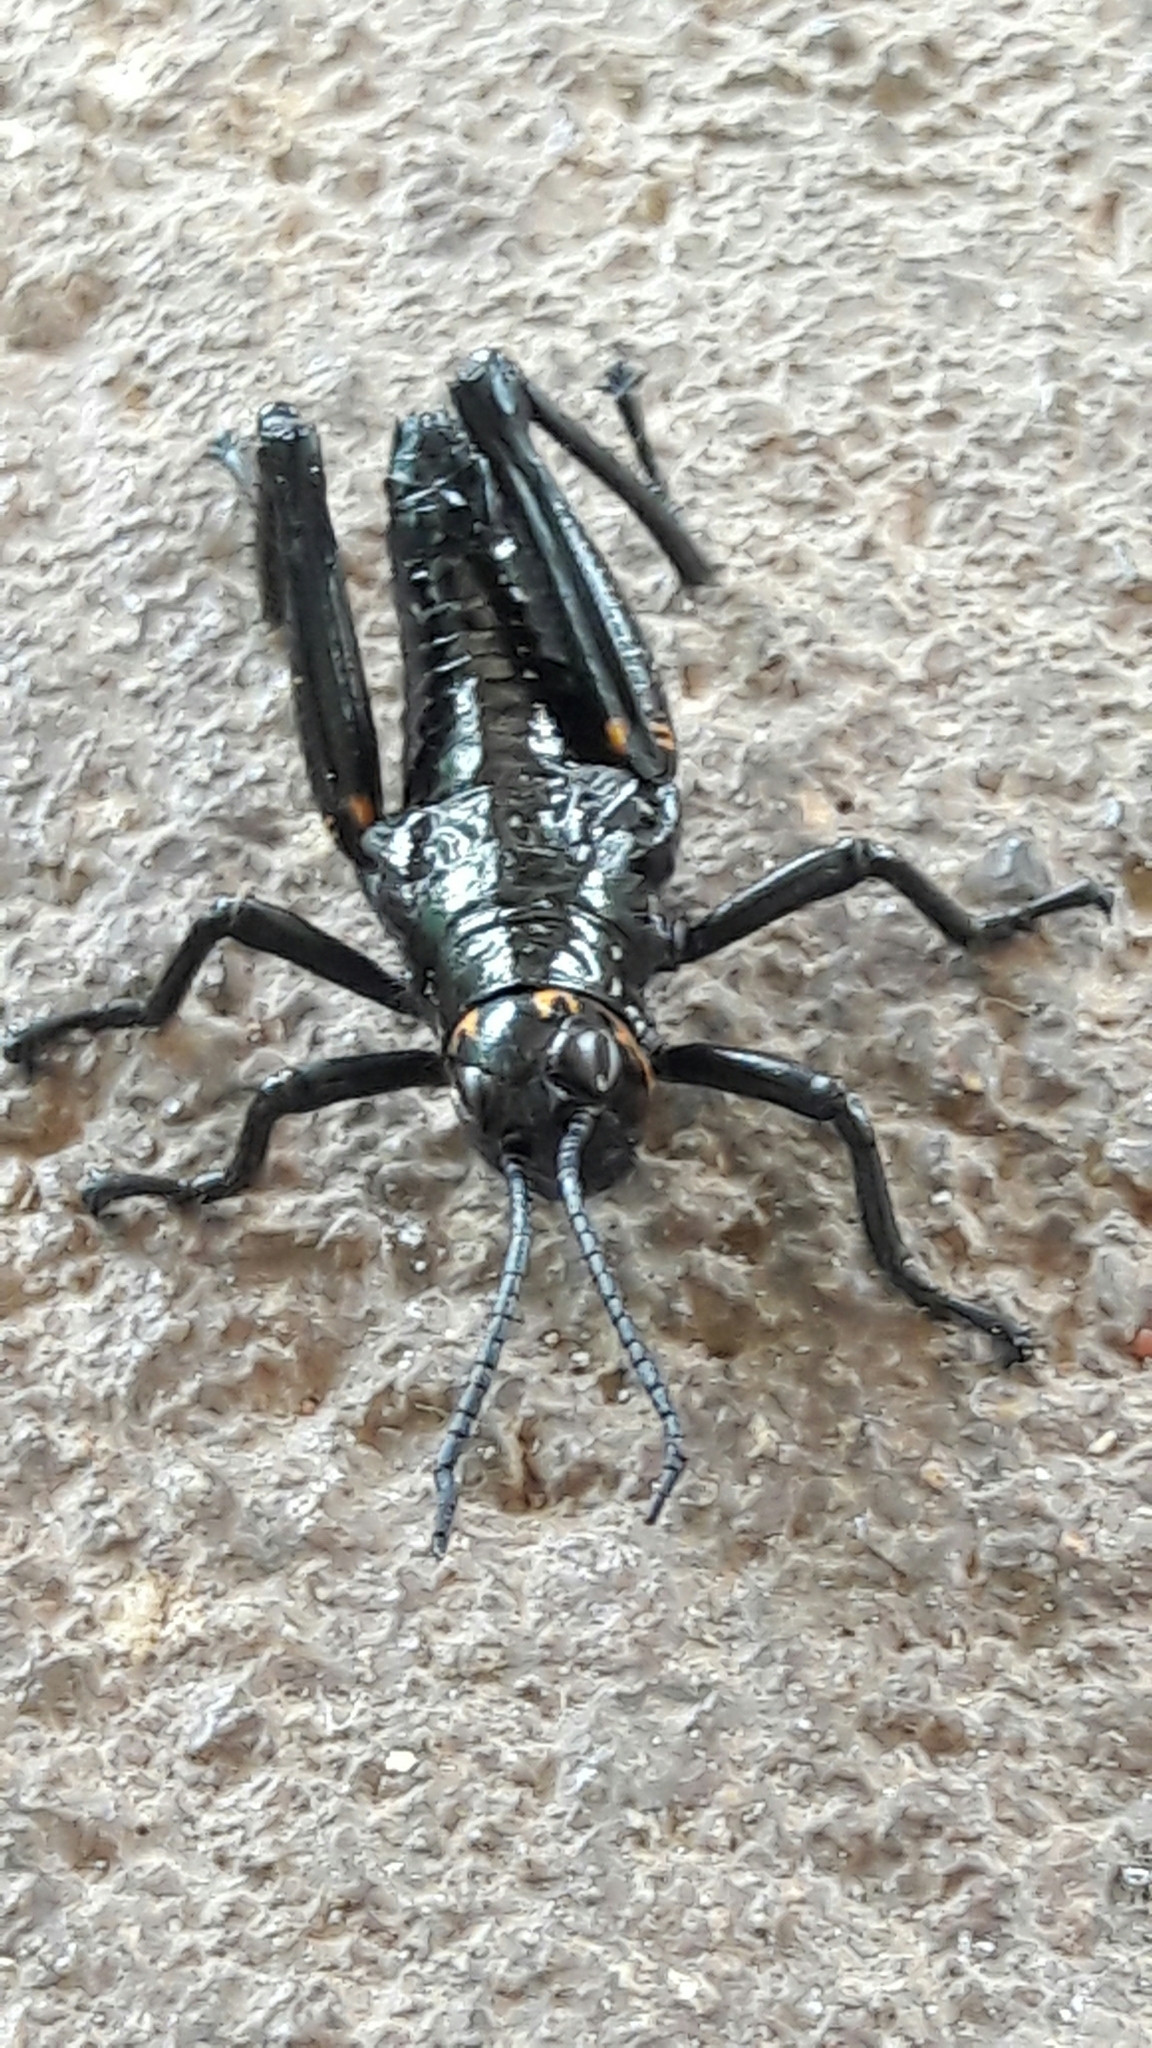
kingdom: Animalia
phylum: Arthropoda
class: Insecta
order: Orthoptera
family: Romaleidae
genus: Chromacris
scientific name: Chromacris speciosa
